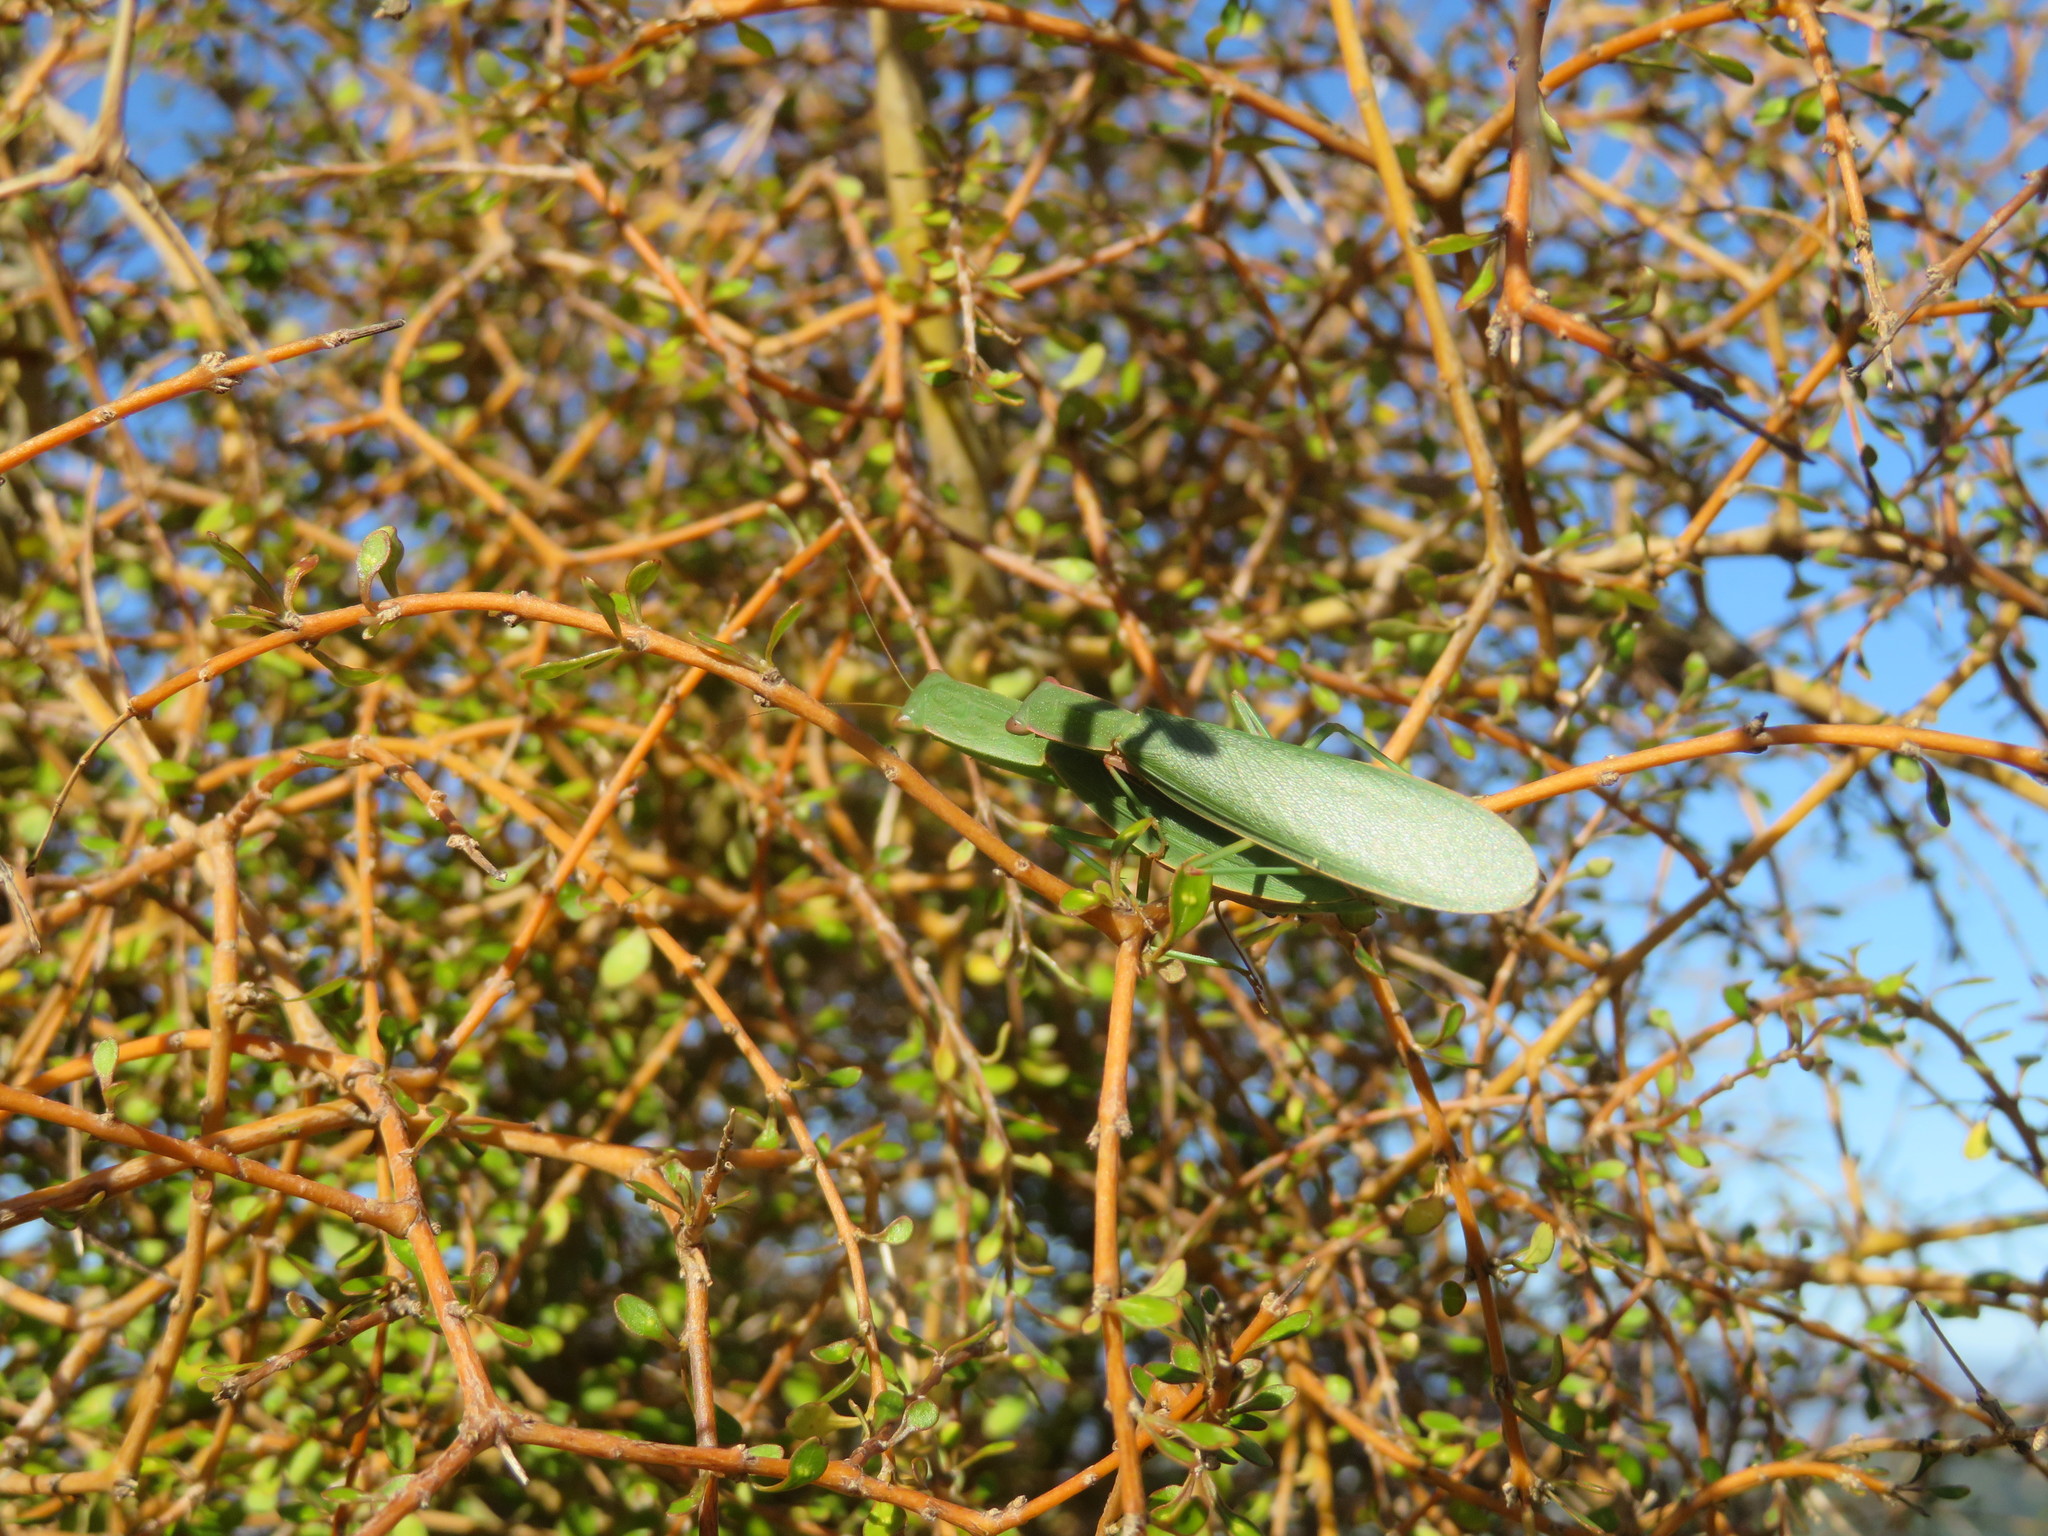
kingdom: Animalia
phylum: Arthropoda
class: Insecta
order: Mantodea
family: Mantidae
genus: Orthodera
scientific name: Orthodera novaezealandiae
